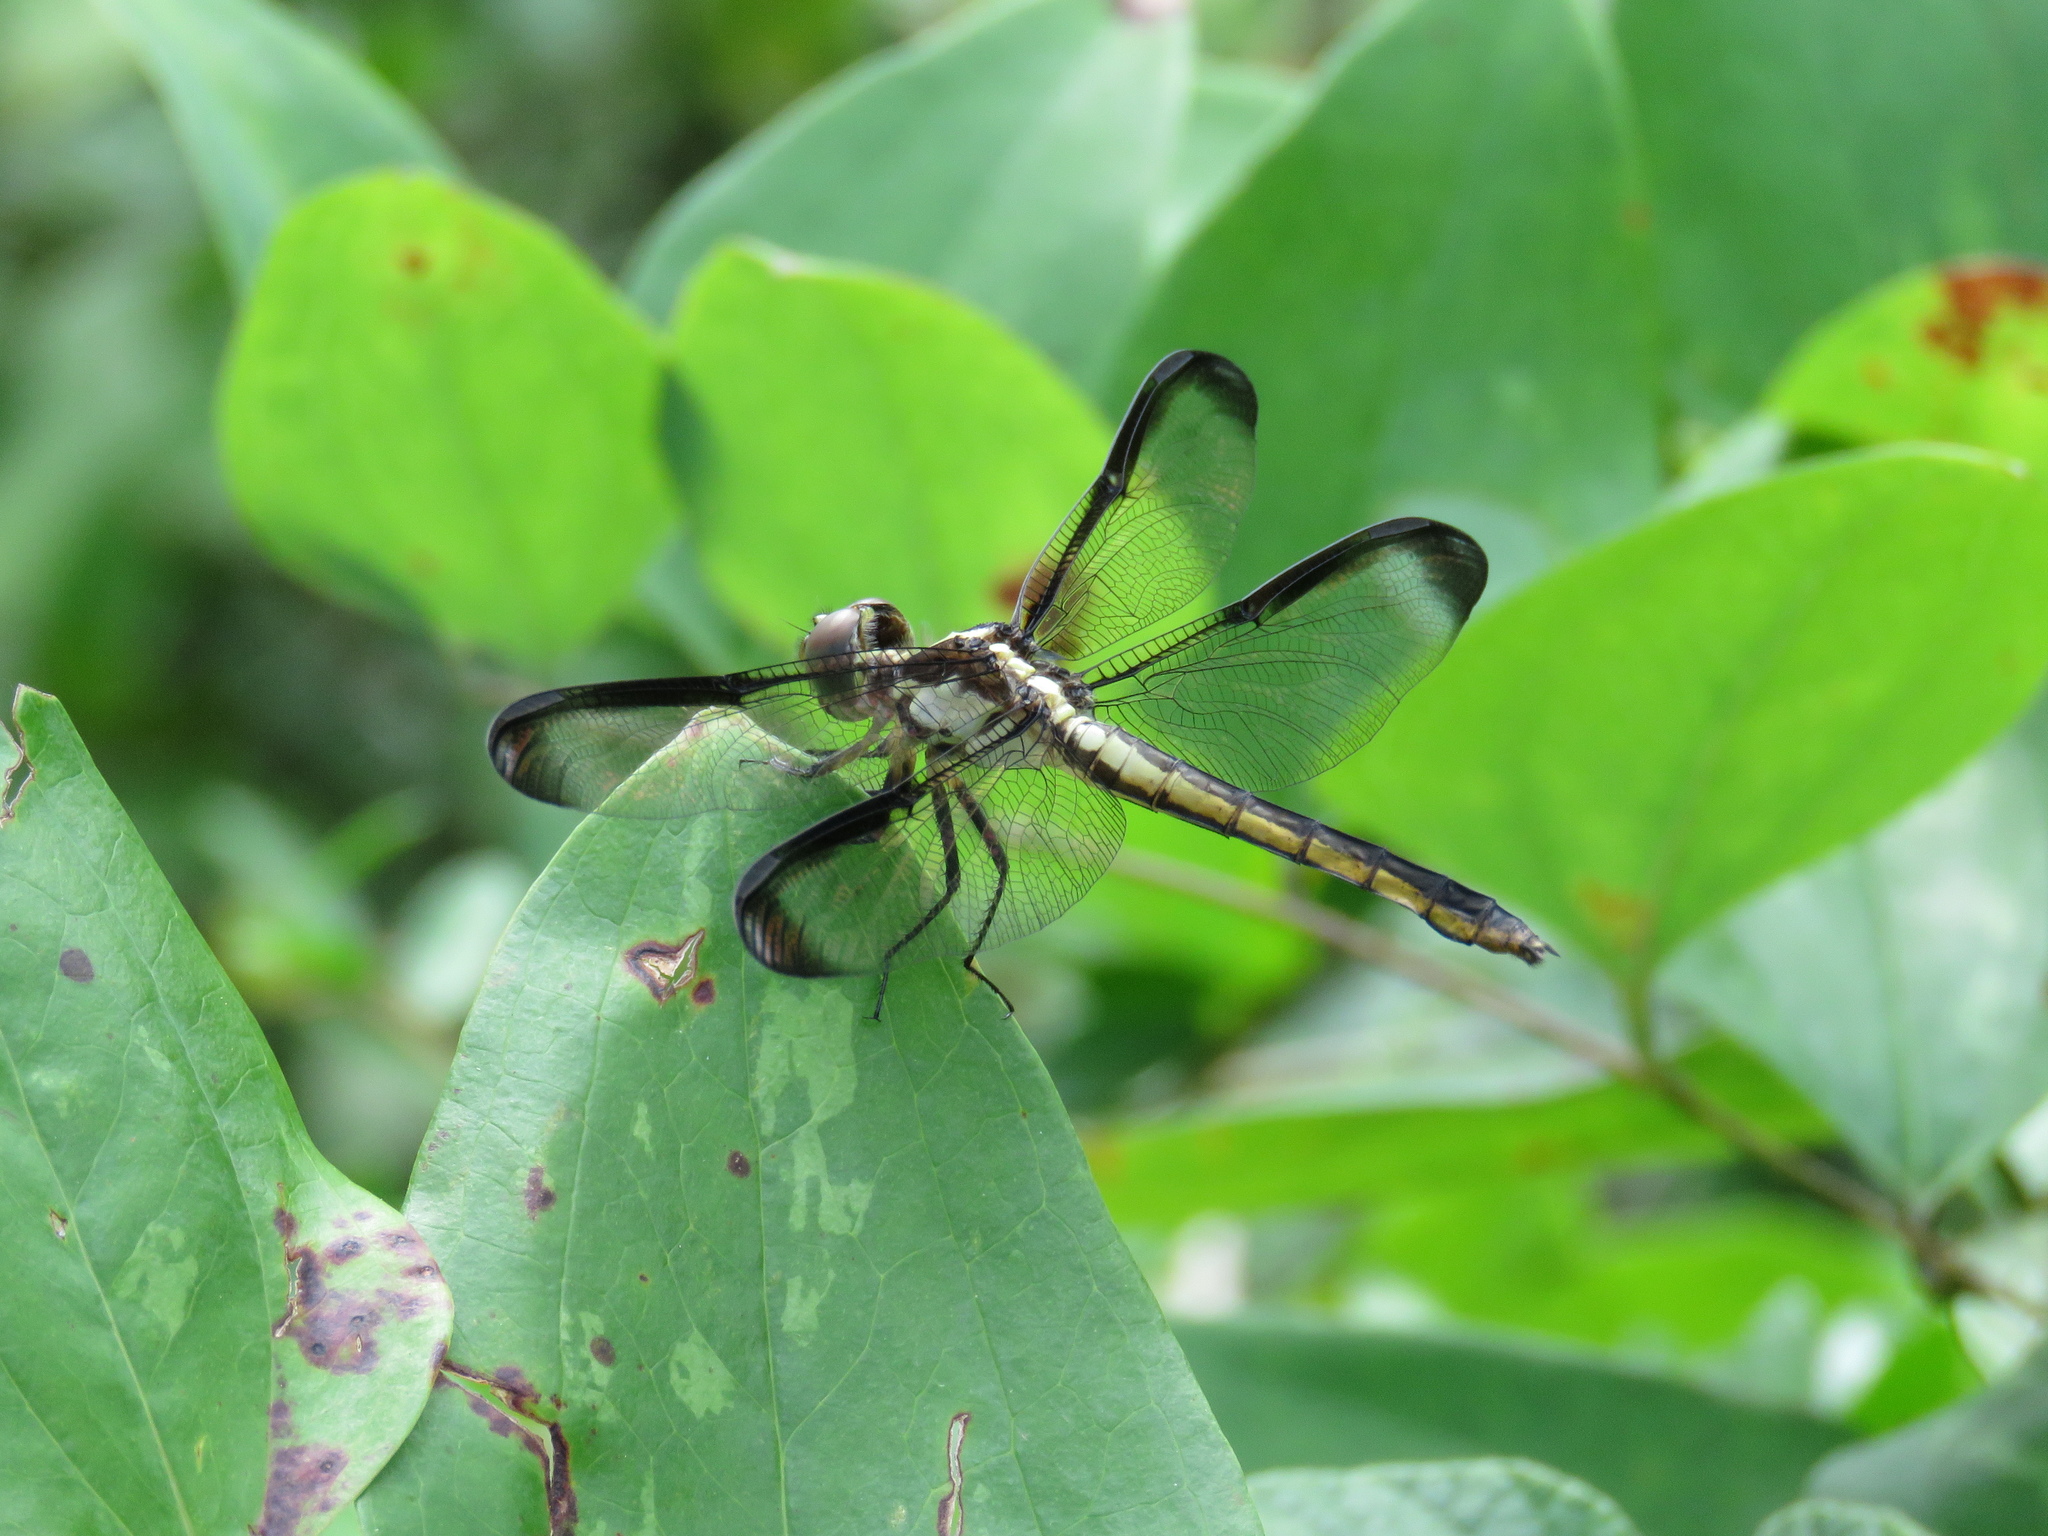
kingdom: Animalia
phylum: Arthropoda
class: Insecta
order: Odonata
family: Libellulidae
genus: Libellula
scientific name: Libellula incesta
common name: Slaty skimmer
